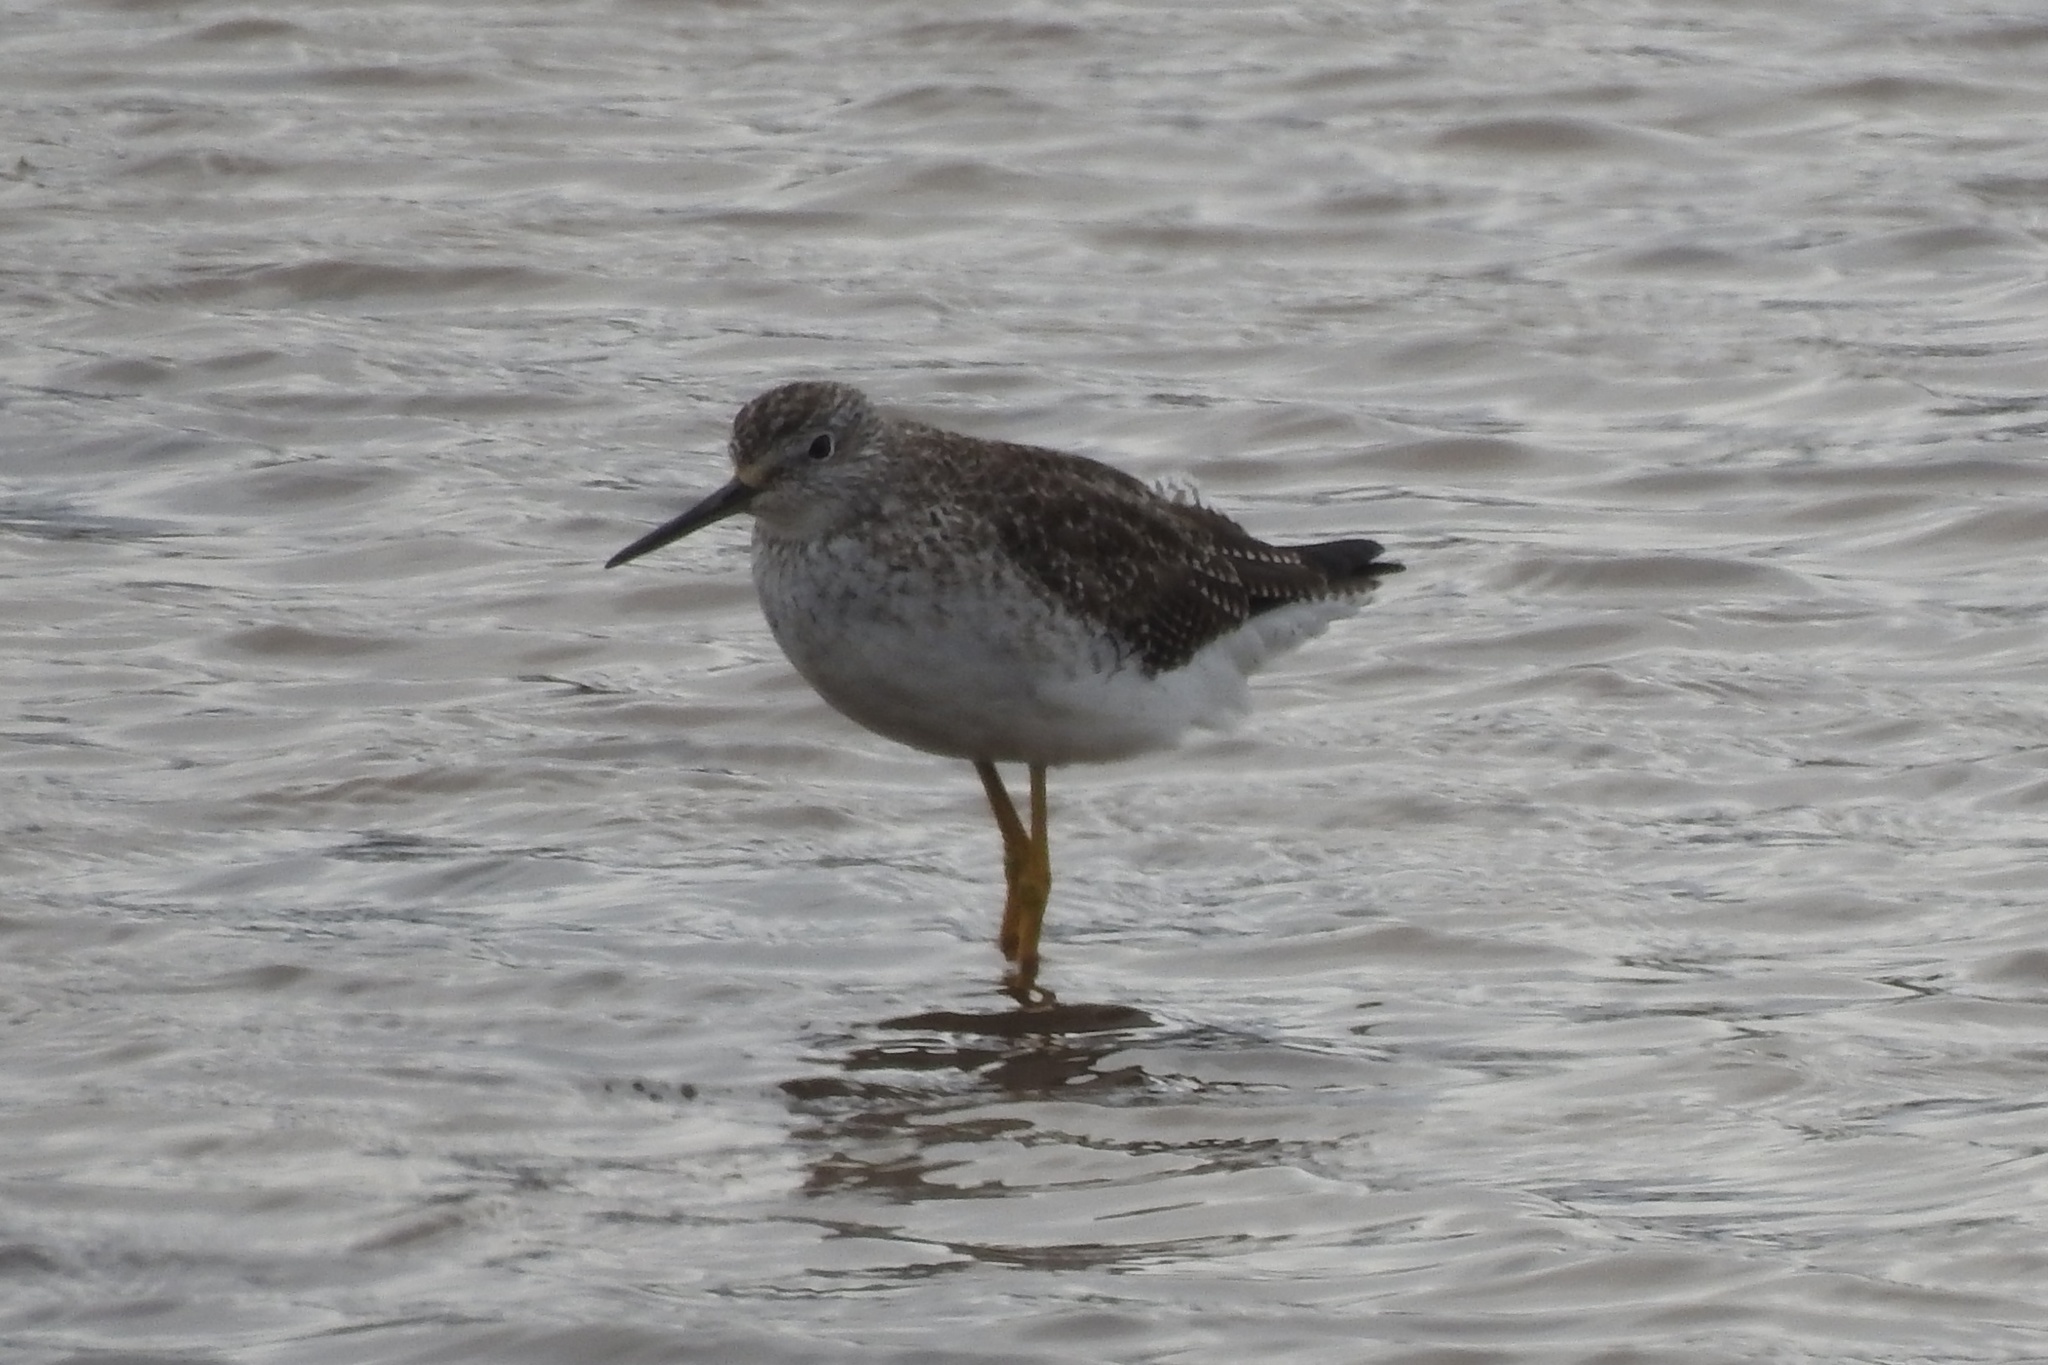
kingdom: Animalia
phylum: Chordata
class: Aves
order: Charadriiformes
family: Scolopacidae
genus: Tringa
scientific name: Tringa melanoleuca
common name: Greater yellowlegs
